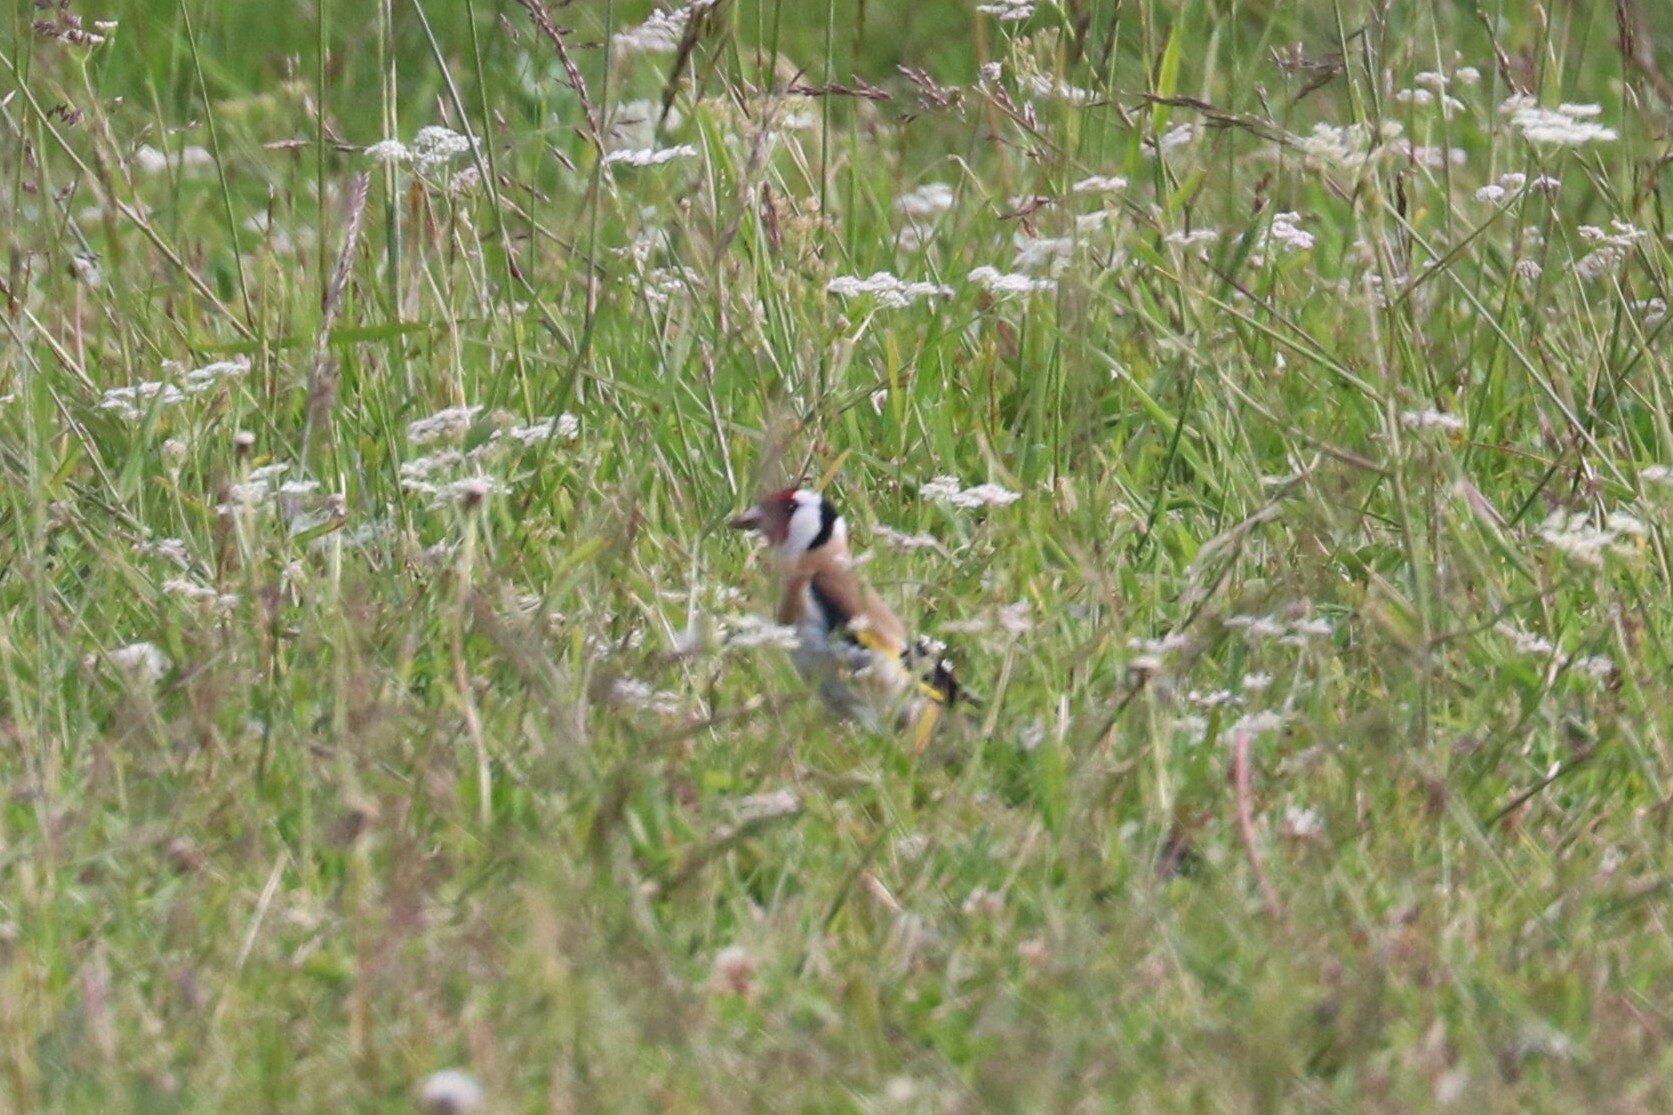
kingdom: Animalia
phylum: Chordata
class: Aves
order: Passeriformes
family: Fringillidae
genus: Carduelis
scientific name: Carduelis carduelis
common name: European goldfinch
